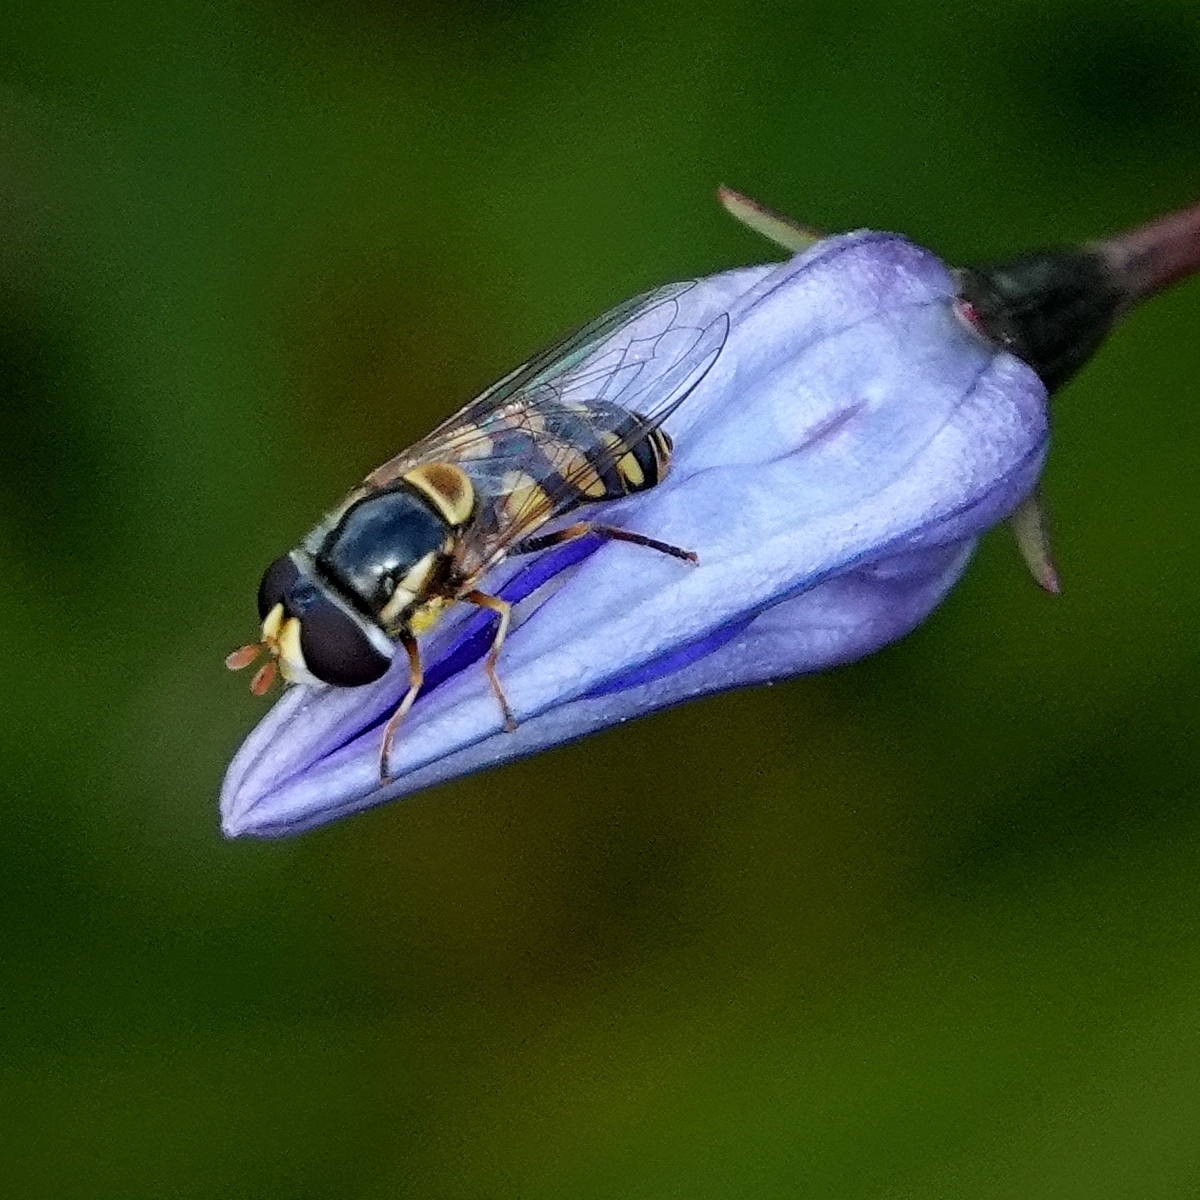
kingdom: Animalia
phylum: Arthropoda
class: Insecta
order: Diptera
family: Syrphidae
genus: Simosyrphus
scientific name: Simosyrphus grandicornis
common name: Hoverfly
